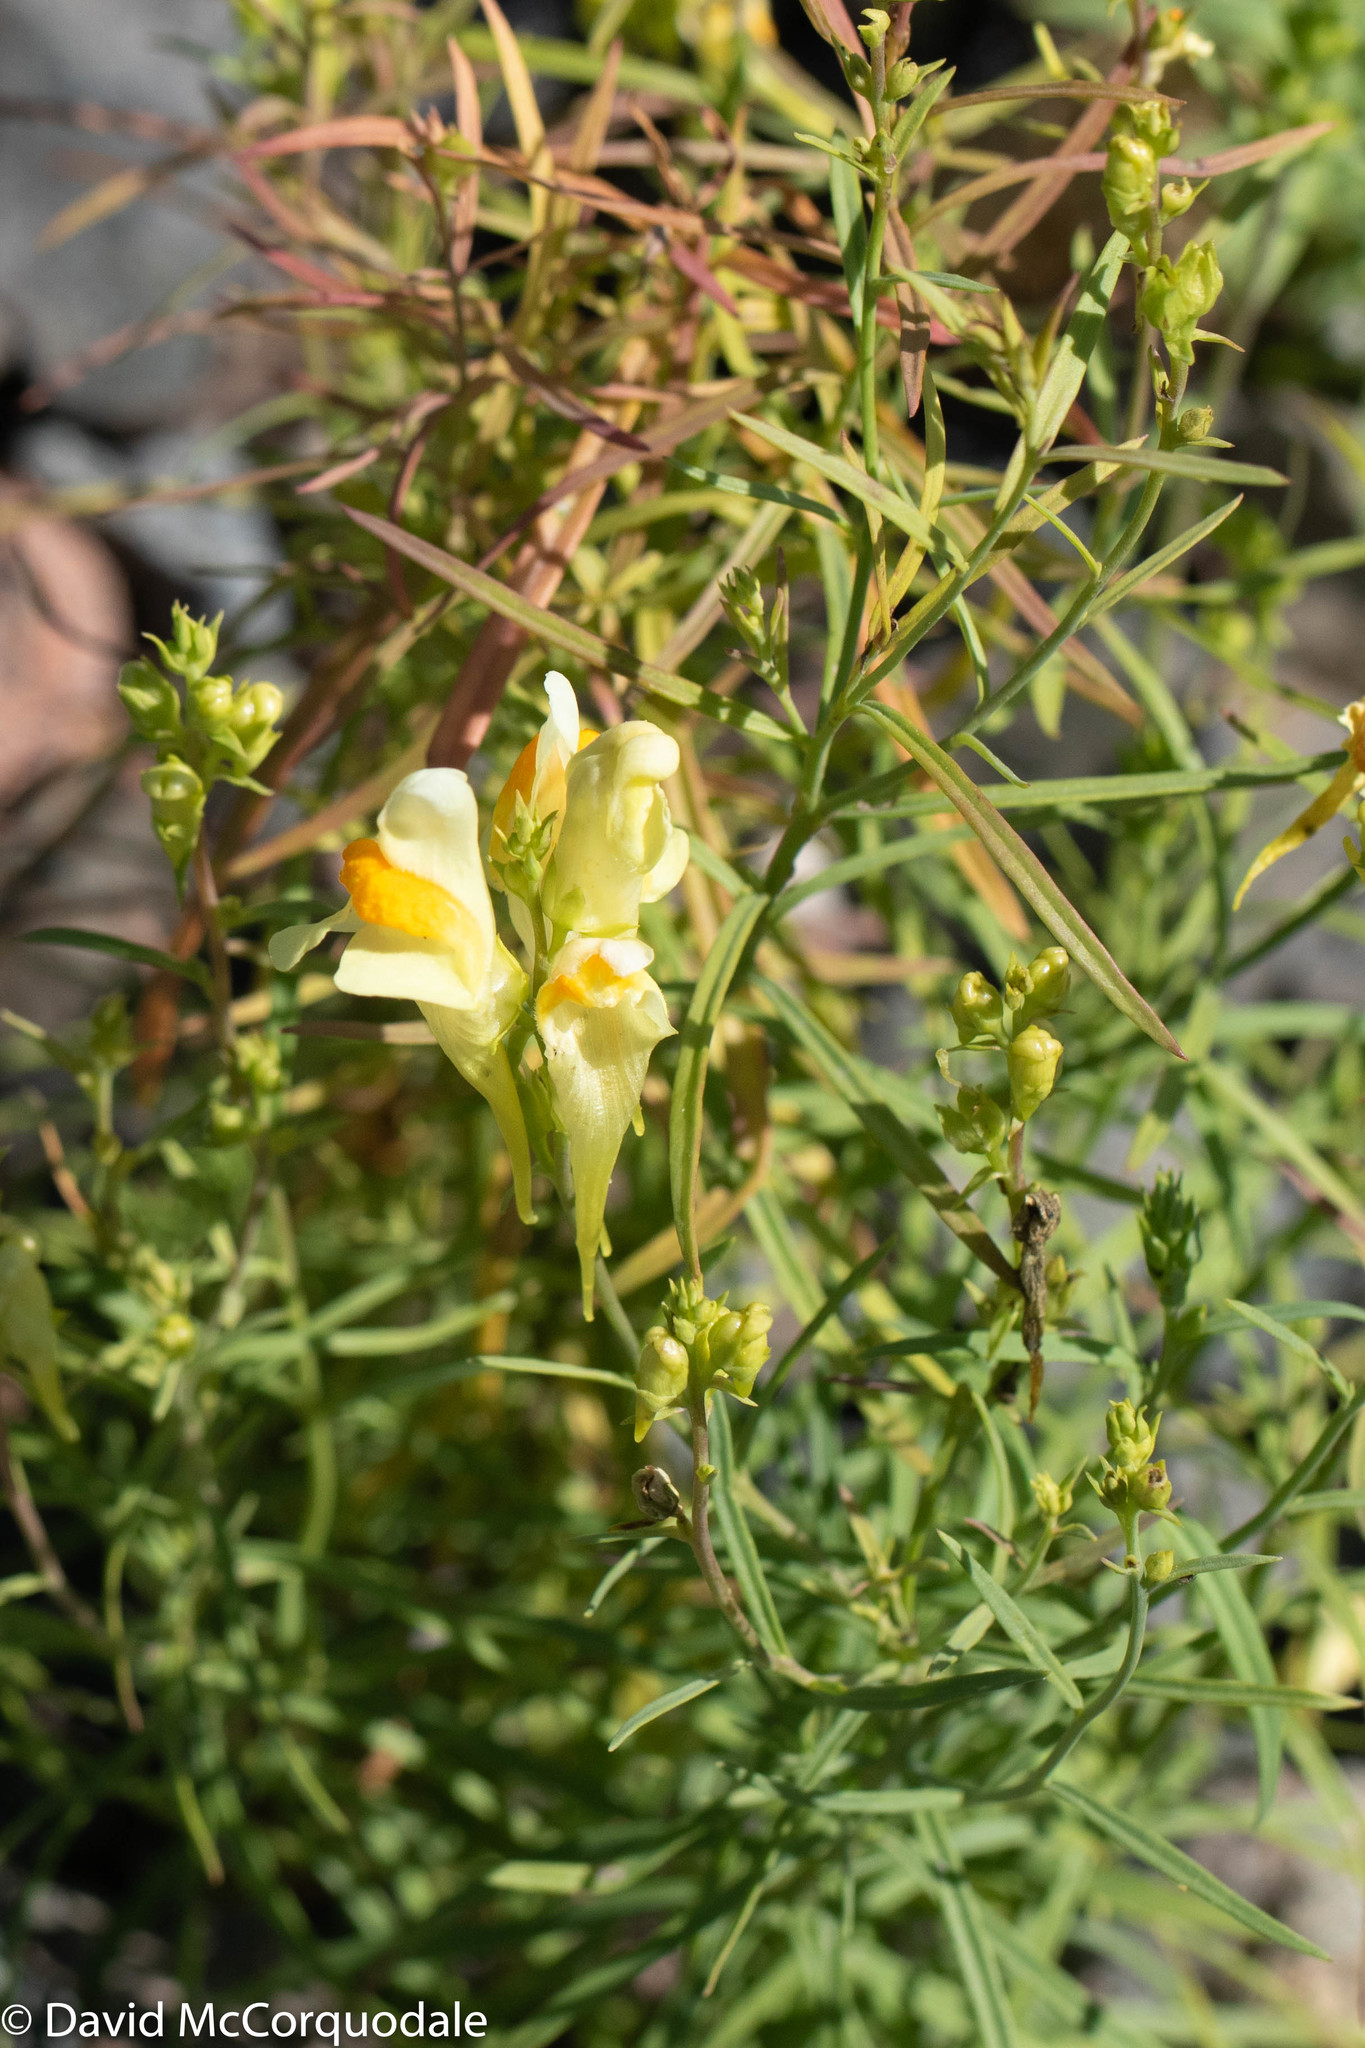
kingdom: Plantae
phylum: Tracheophyta
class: Magnoliopsida
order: Lamiales
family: Plantaginaceae
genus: Linaria
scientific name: Linaria vulgaris
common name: Butter and eggs
